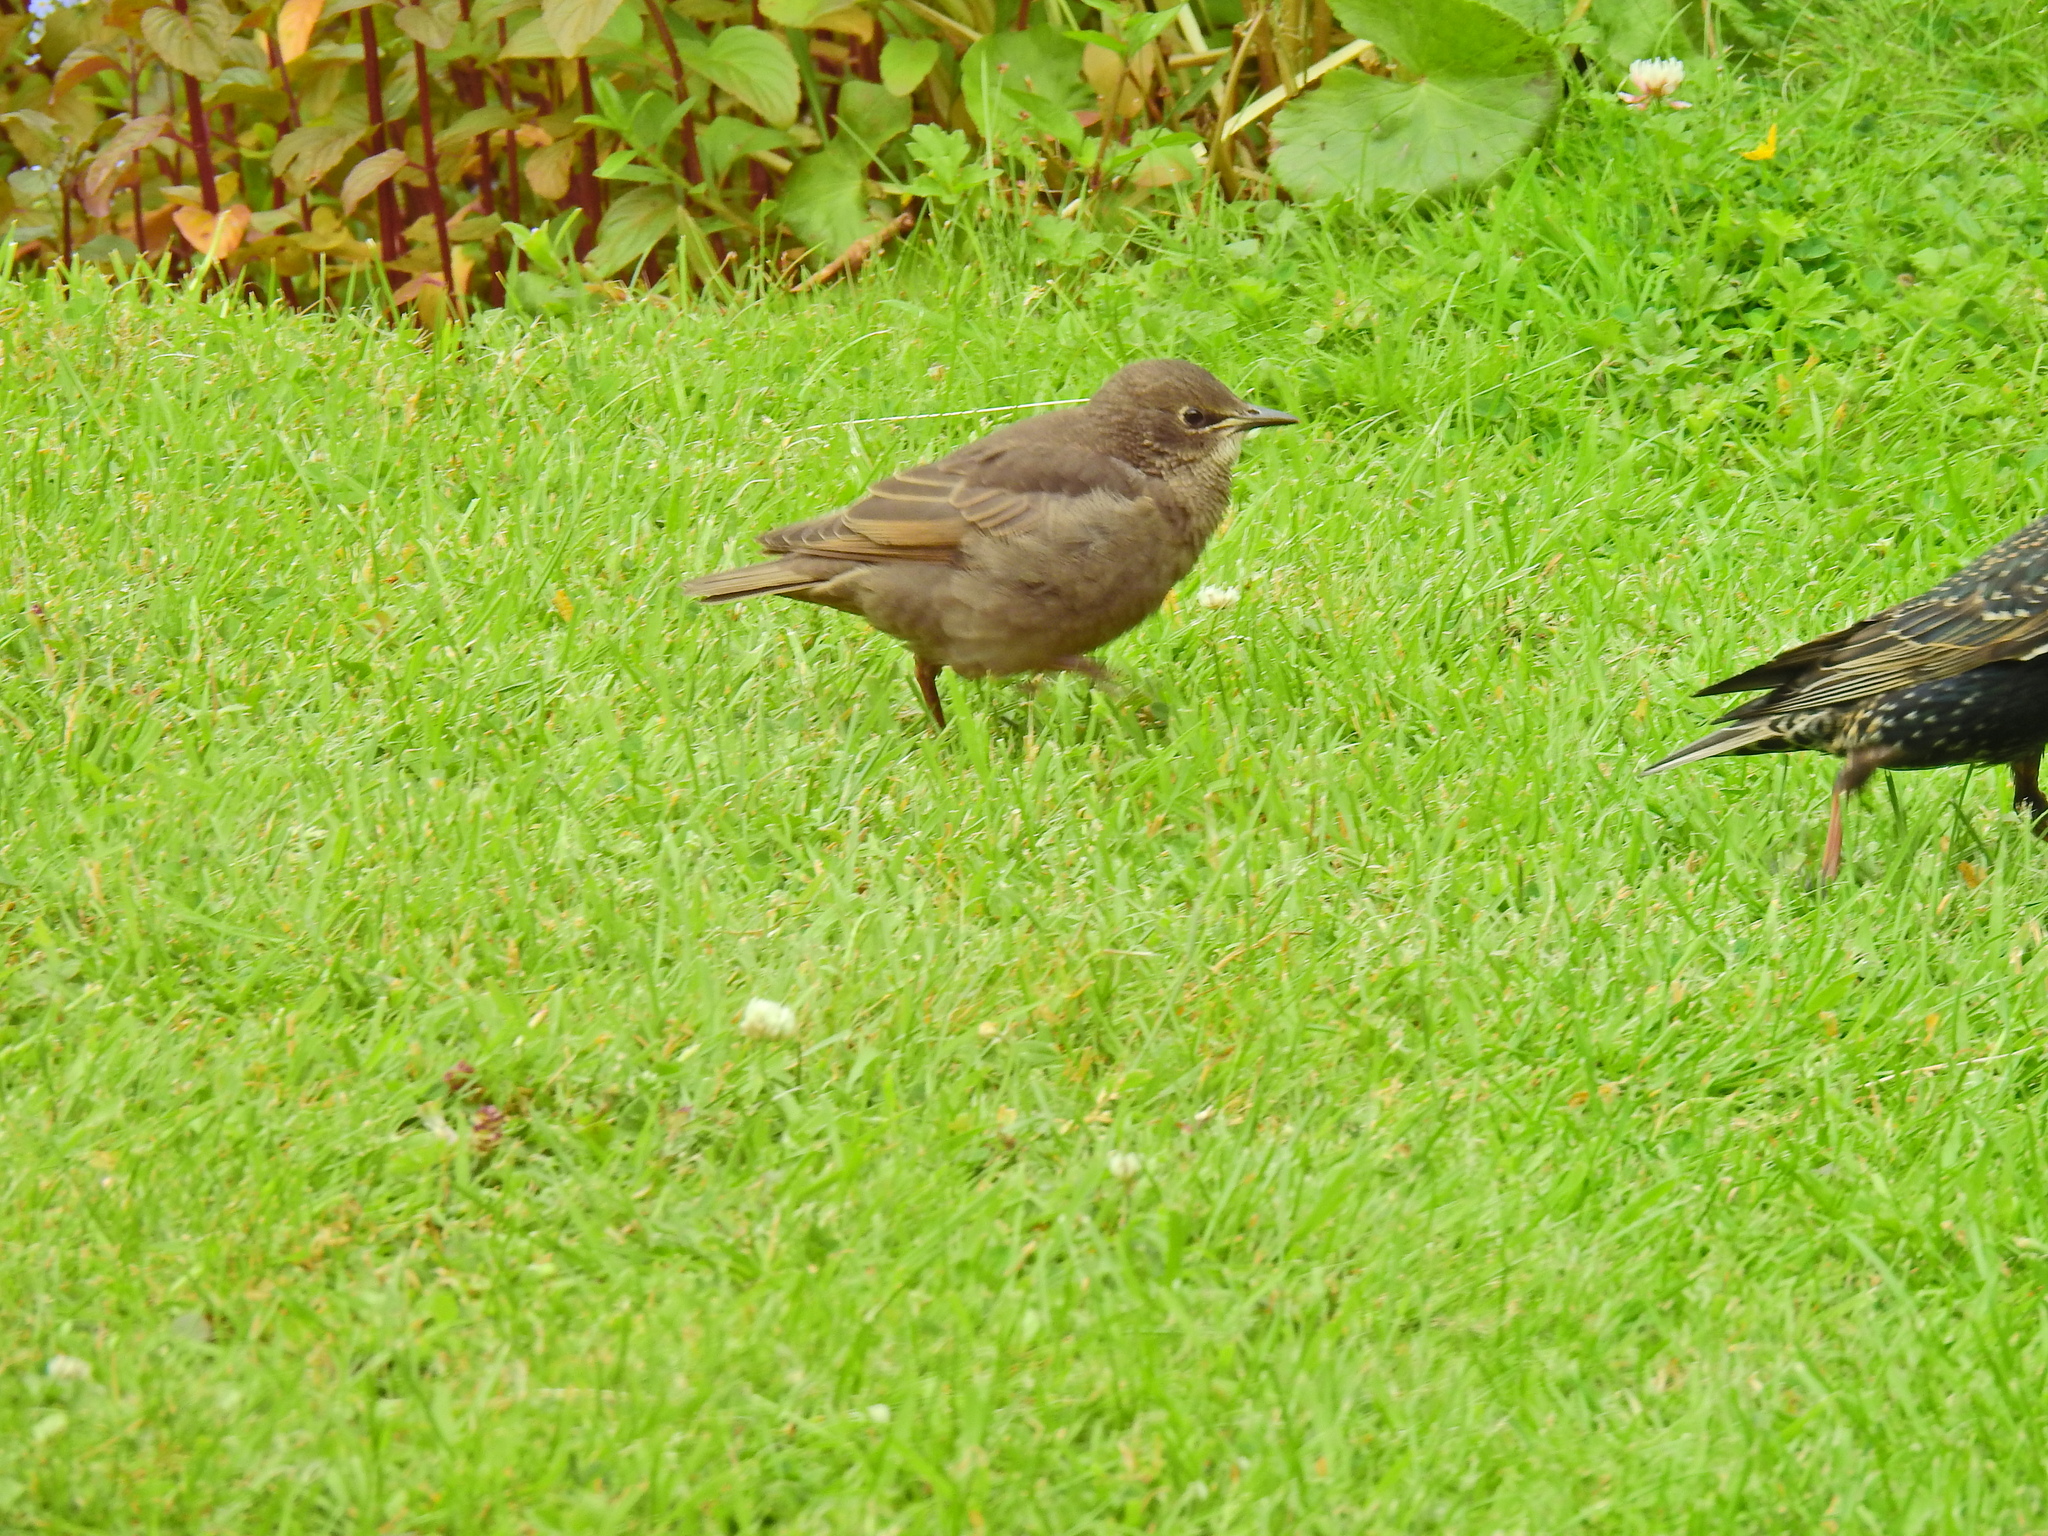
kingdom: Animalia
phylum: Chordata
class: Aves
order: Passeriformes
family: Sturnidae
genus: Sturnus
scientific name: Sturnus vulgaris
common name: Common starling
